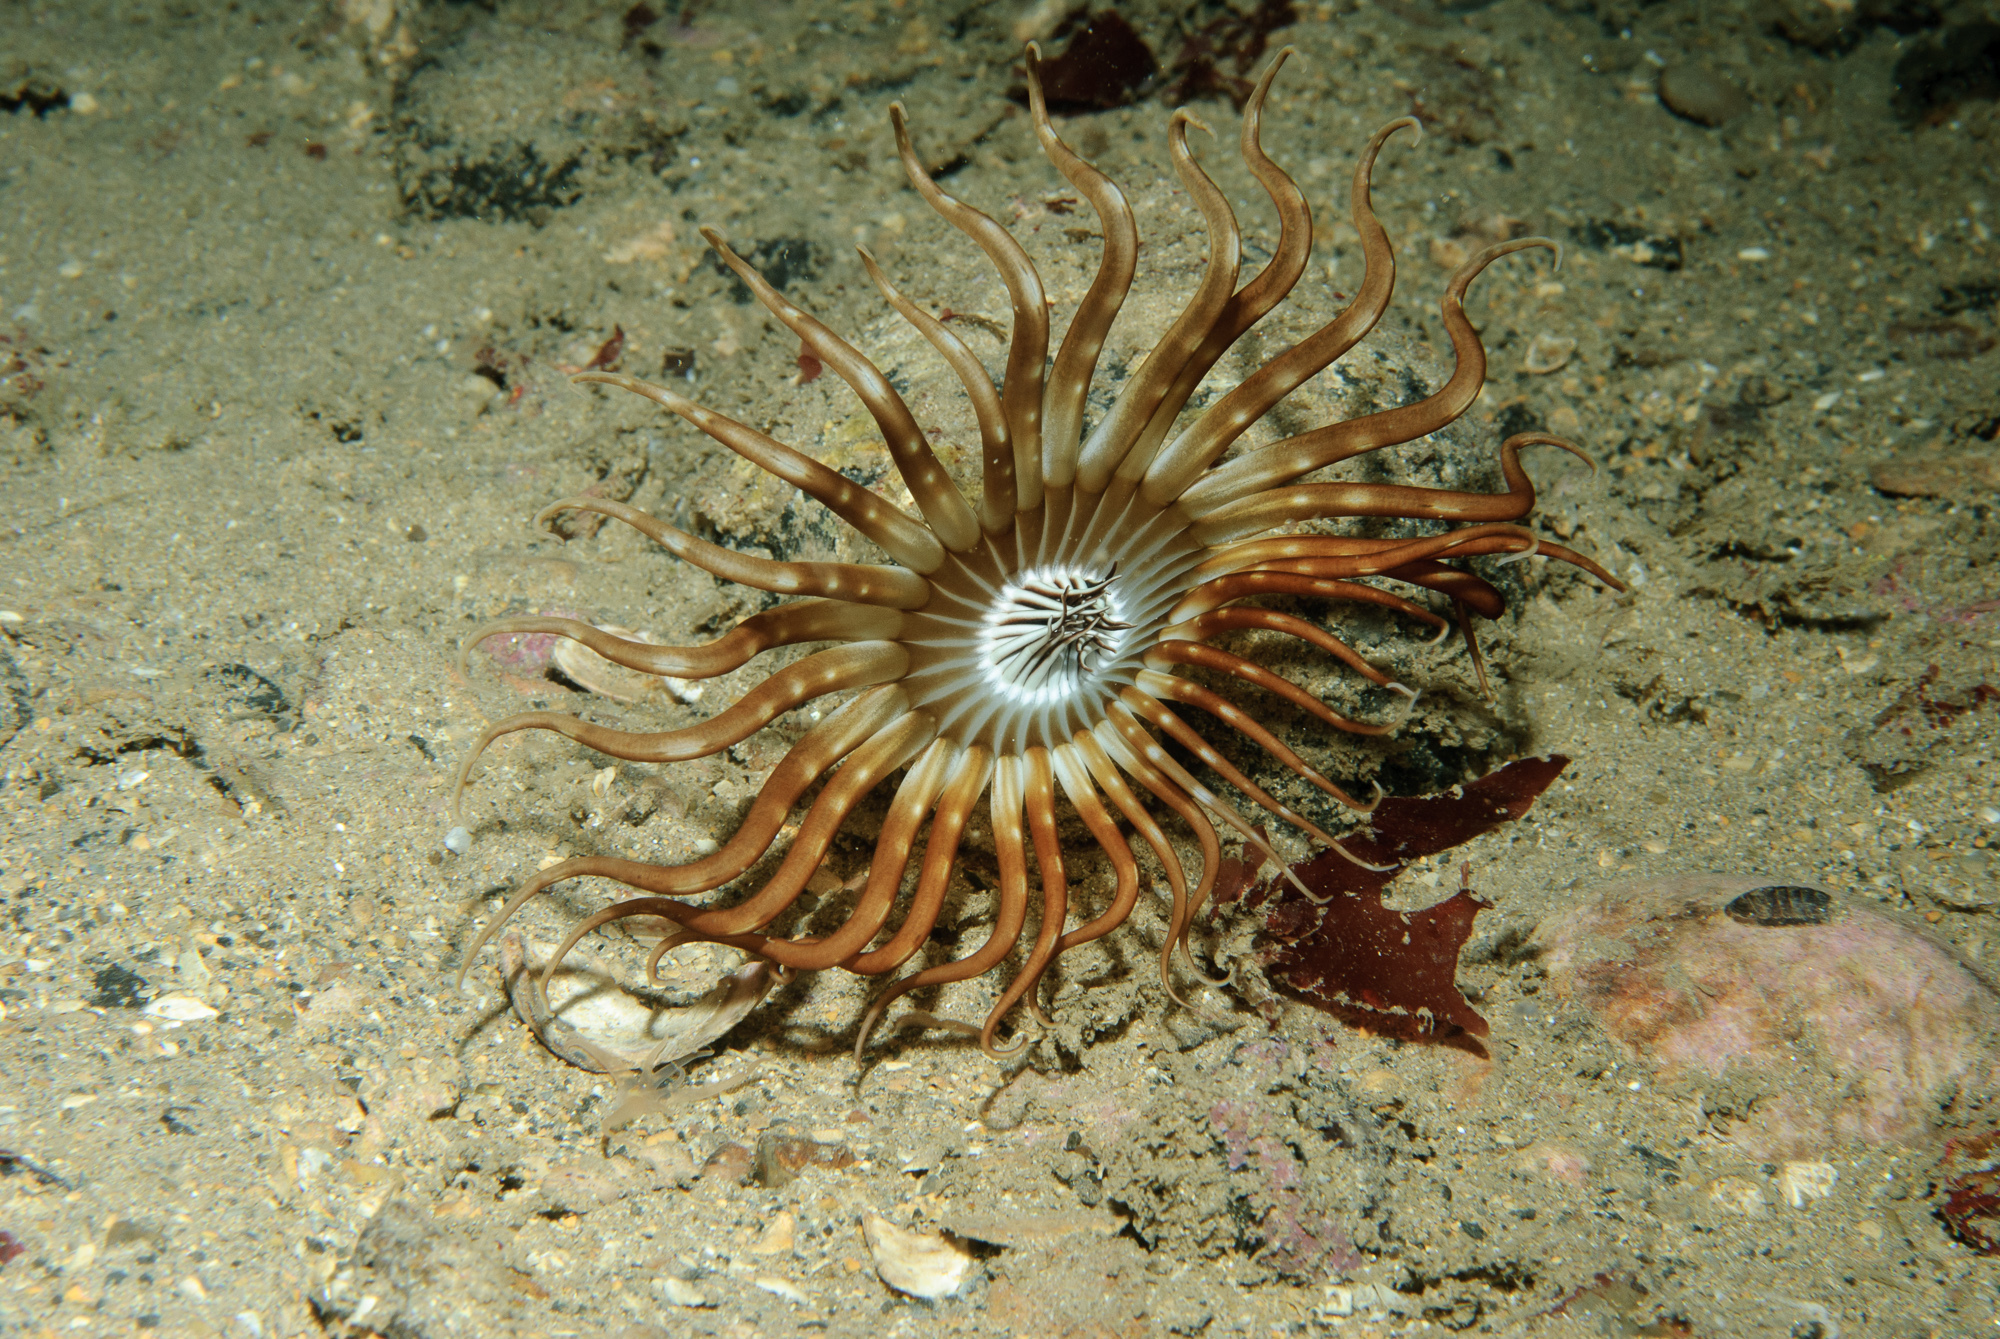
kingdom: Animalia
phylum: Cnidaria
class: Anthozoa
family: Arachnactidae
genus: Arachnanthus
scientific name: Arachnanthus sarsi
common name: Scarce tube-dwelling anemone
